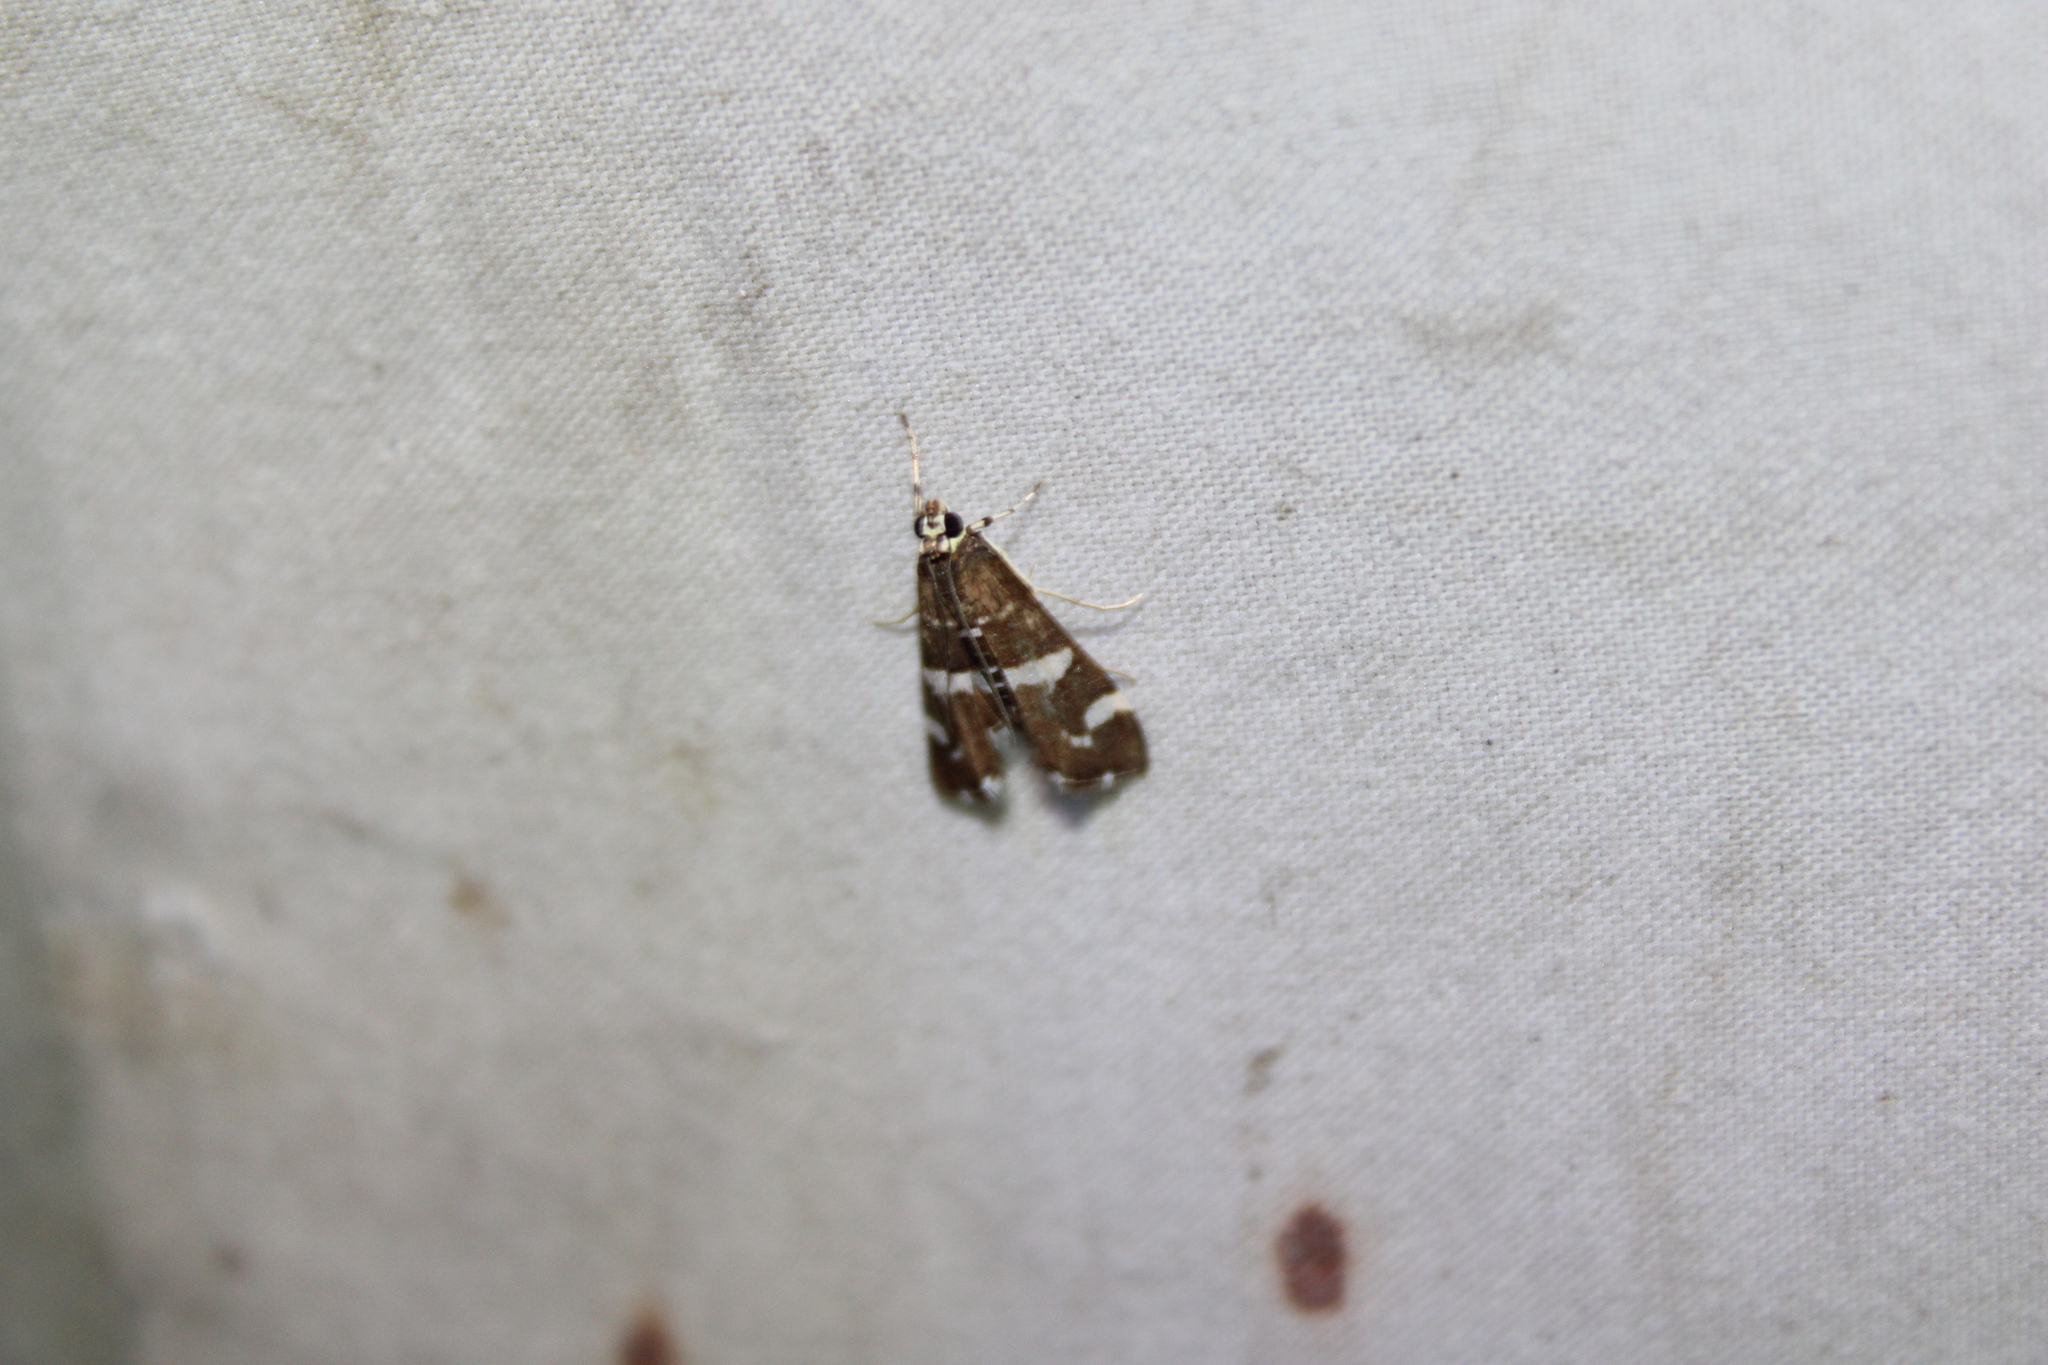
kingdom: Animalia
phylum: Arthropoda
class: Insecta
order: Lepidoptera
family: Crambidae
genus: Spoladea
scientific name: Spoladea recurvalis
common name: Beet webworm moth
